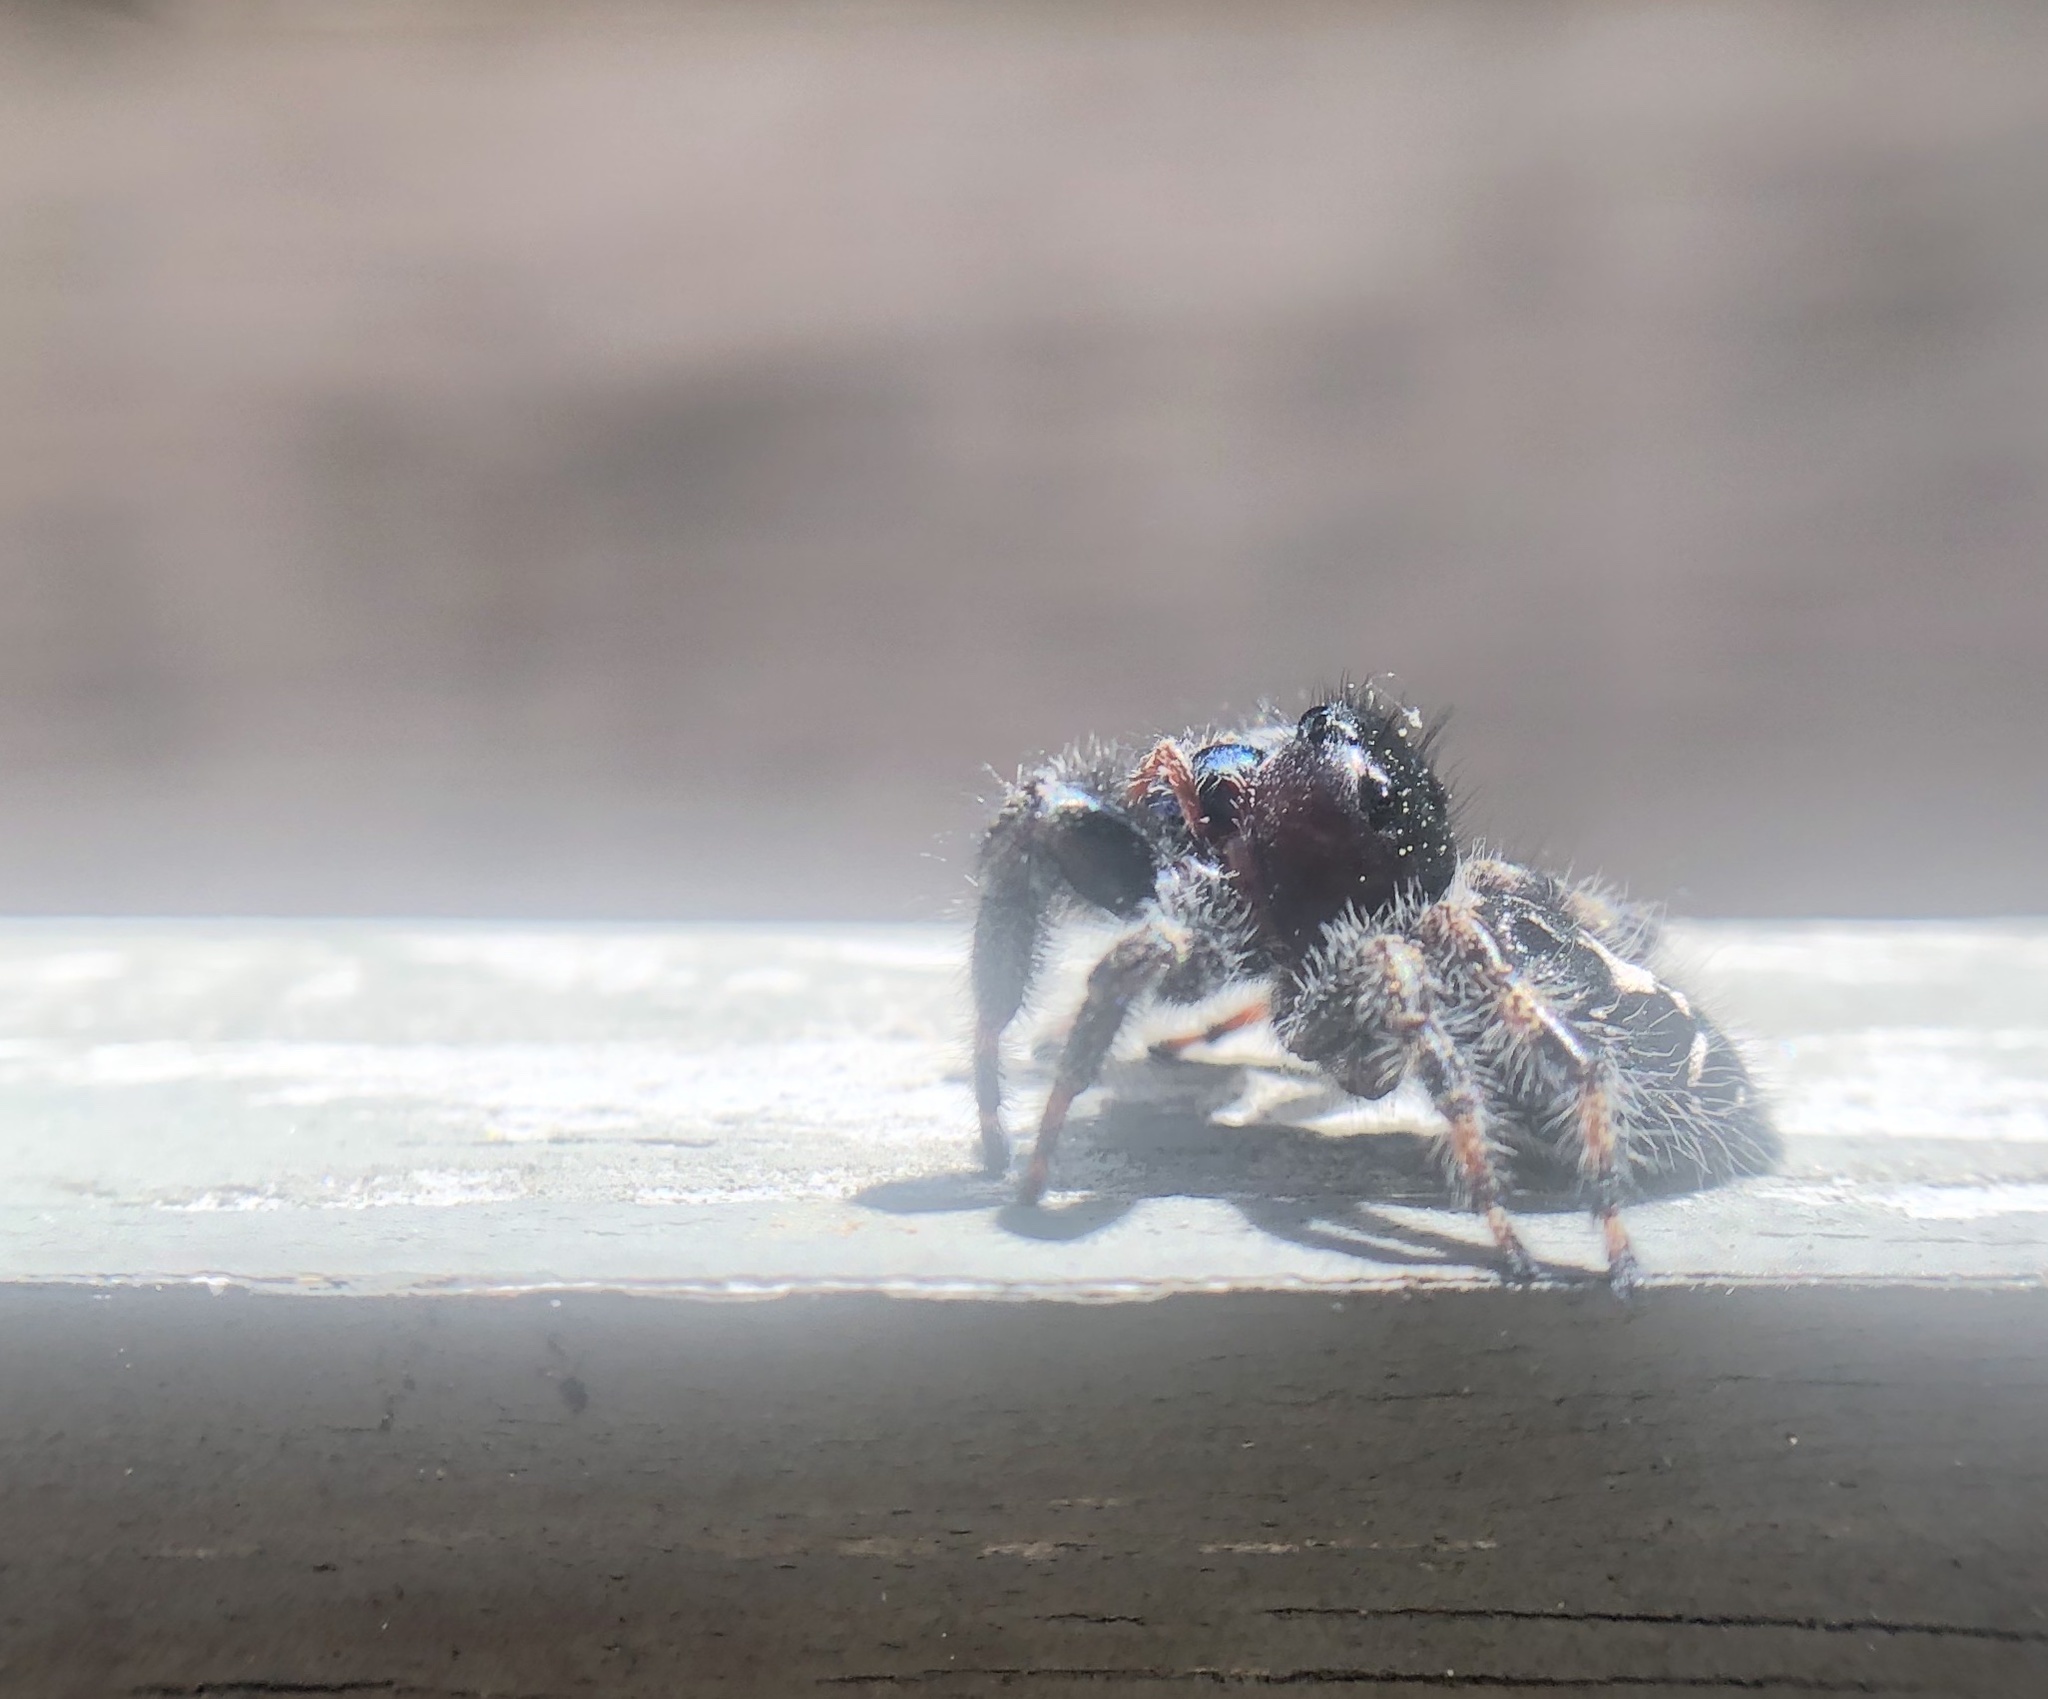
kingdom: Animalia
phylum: Arthropoda
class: Arachnida
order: Araneae
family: Salticidae
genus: Phidippus
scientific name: Phidippus audax
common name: Bold jumper
